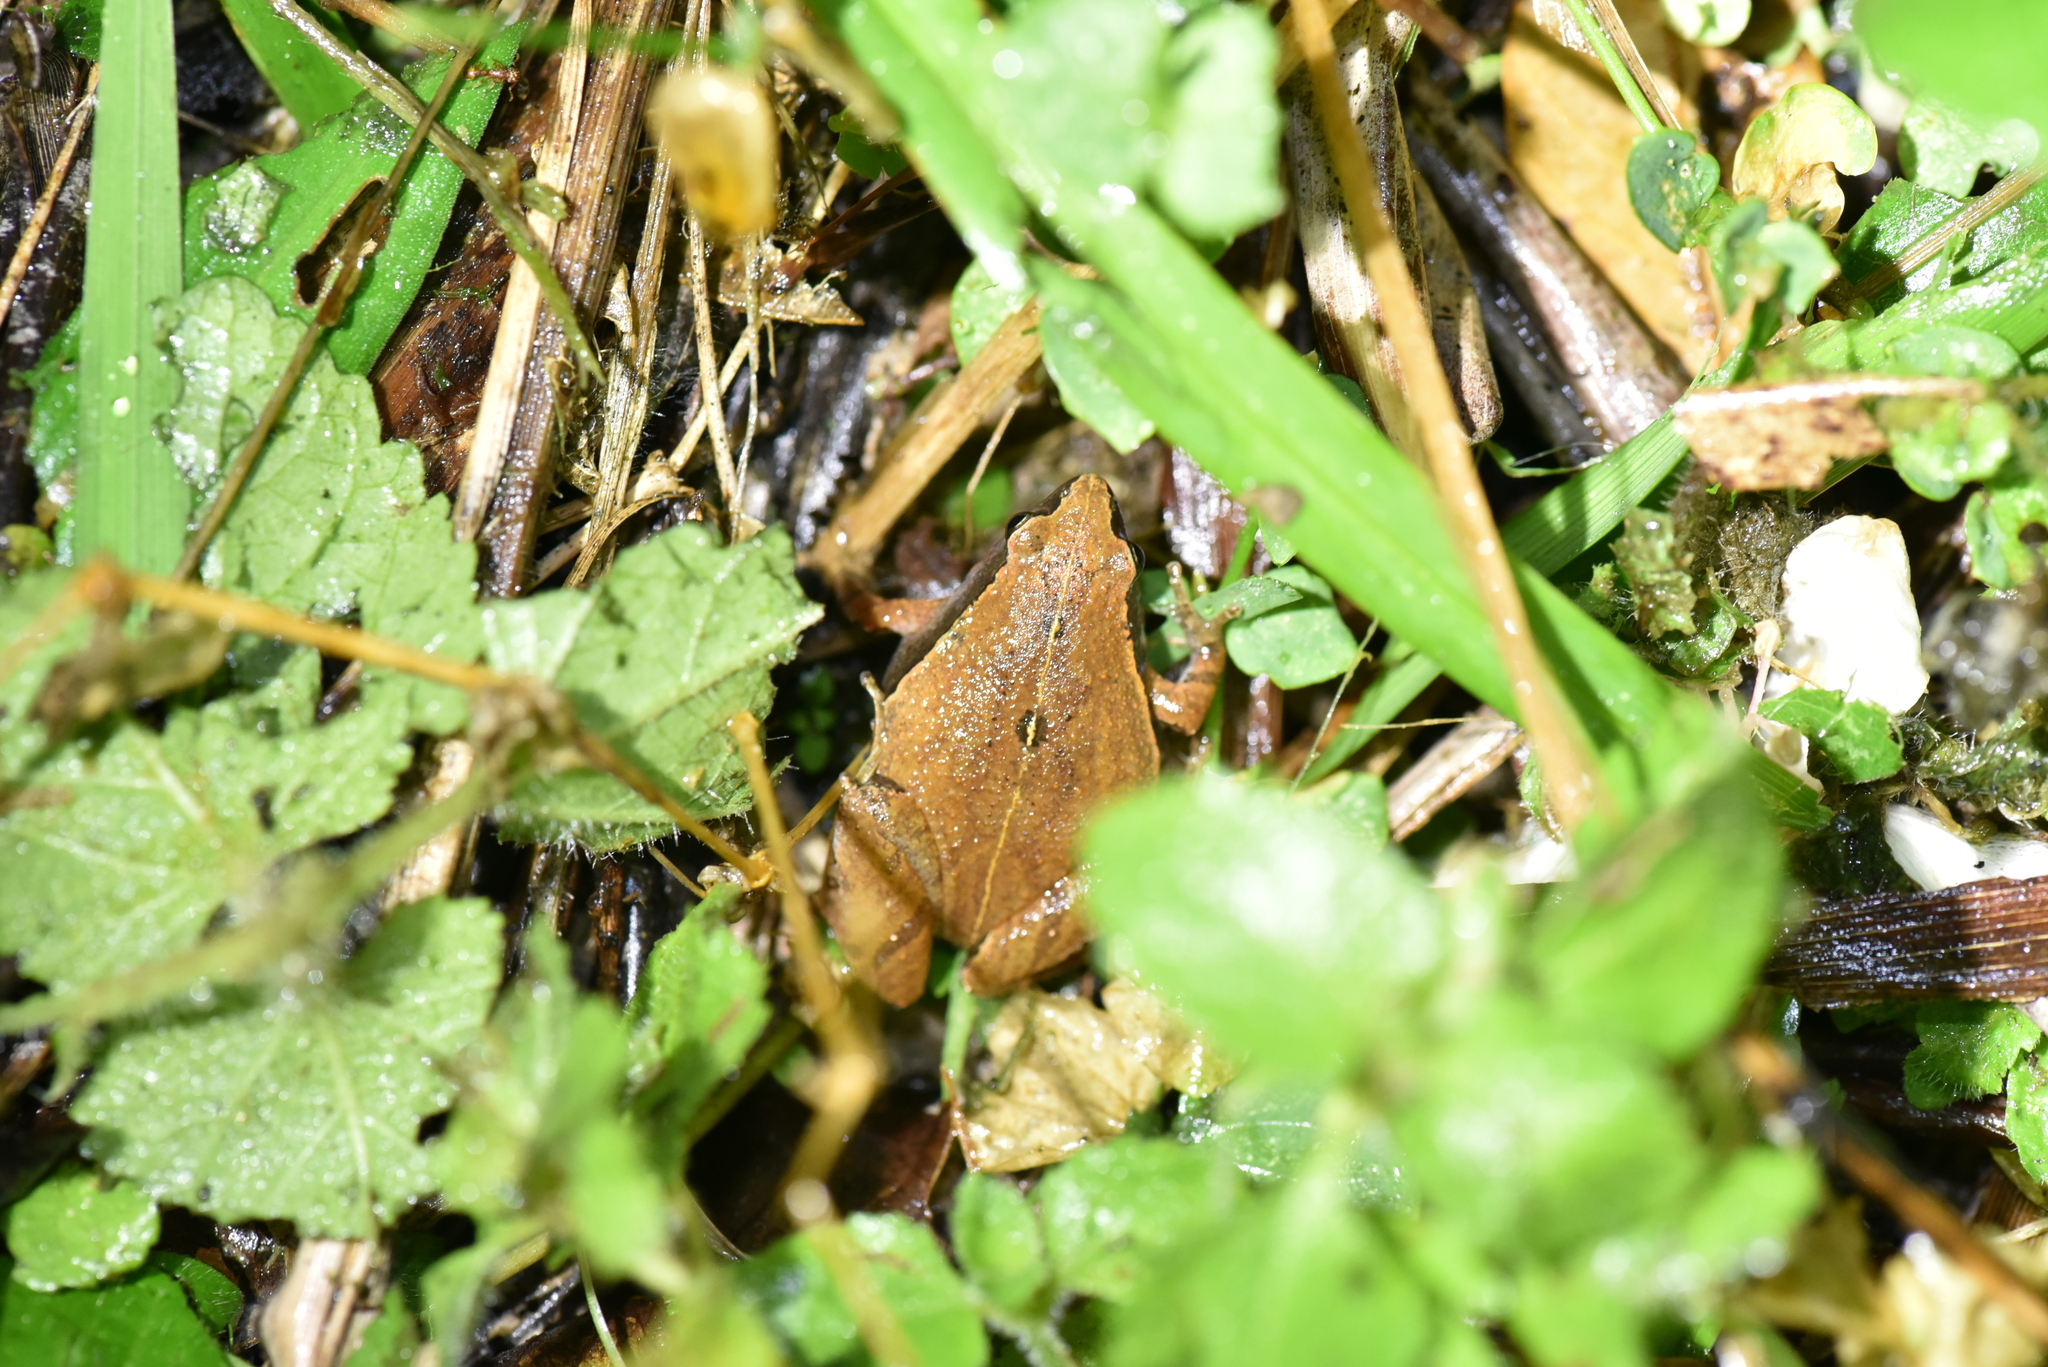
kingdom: Animalia
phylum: Chordata
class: Amphibia
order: Anura
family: Microhylidae
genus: Microhyla
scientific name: Microhyla heymonsi
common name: Taiwan rice frog,dark sided chorus frog
